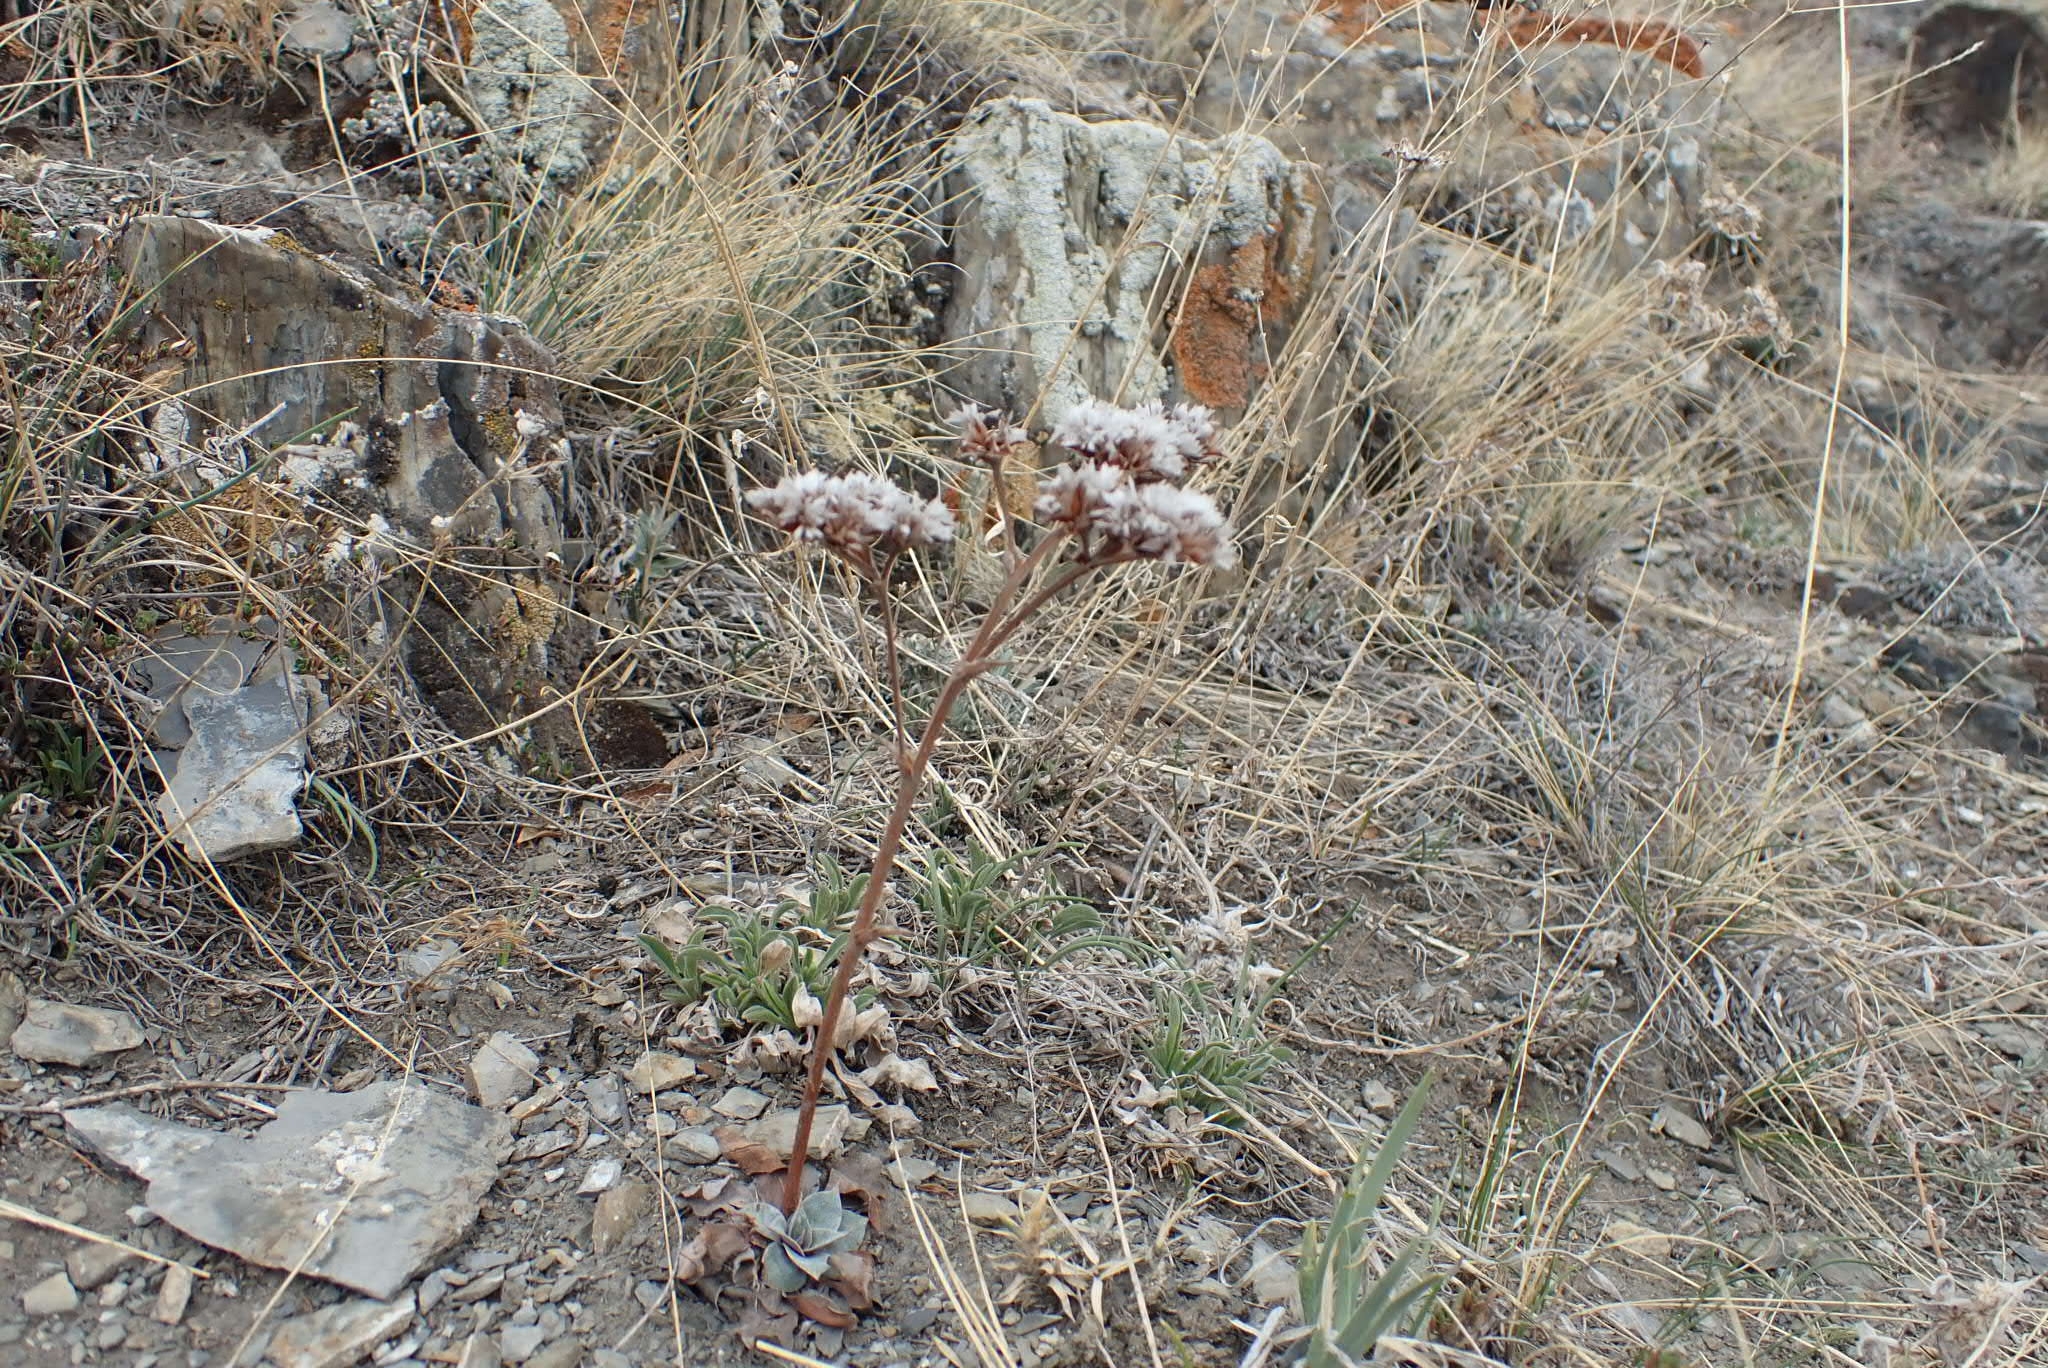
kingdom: Plantae
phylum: Tracheophyta
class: Magnoliopsida
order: Caryophyllales
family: Plumbaginaceae
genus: Goniolimon
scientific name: Goniolimon speciosum
